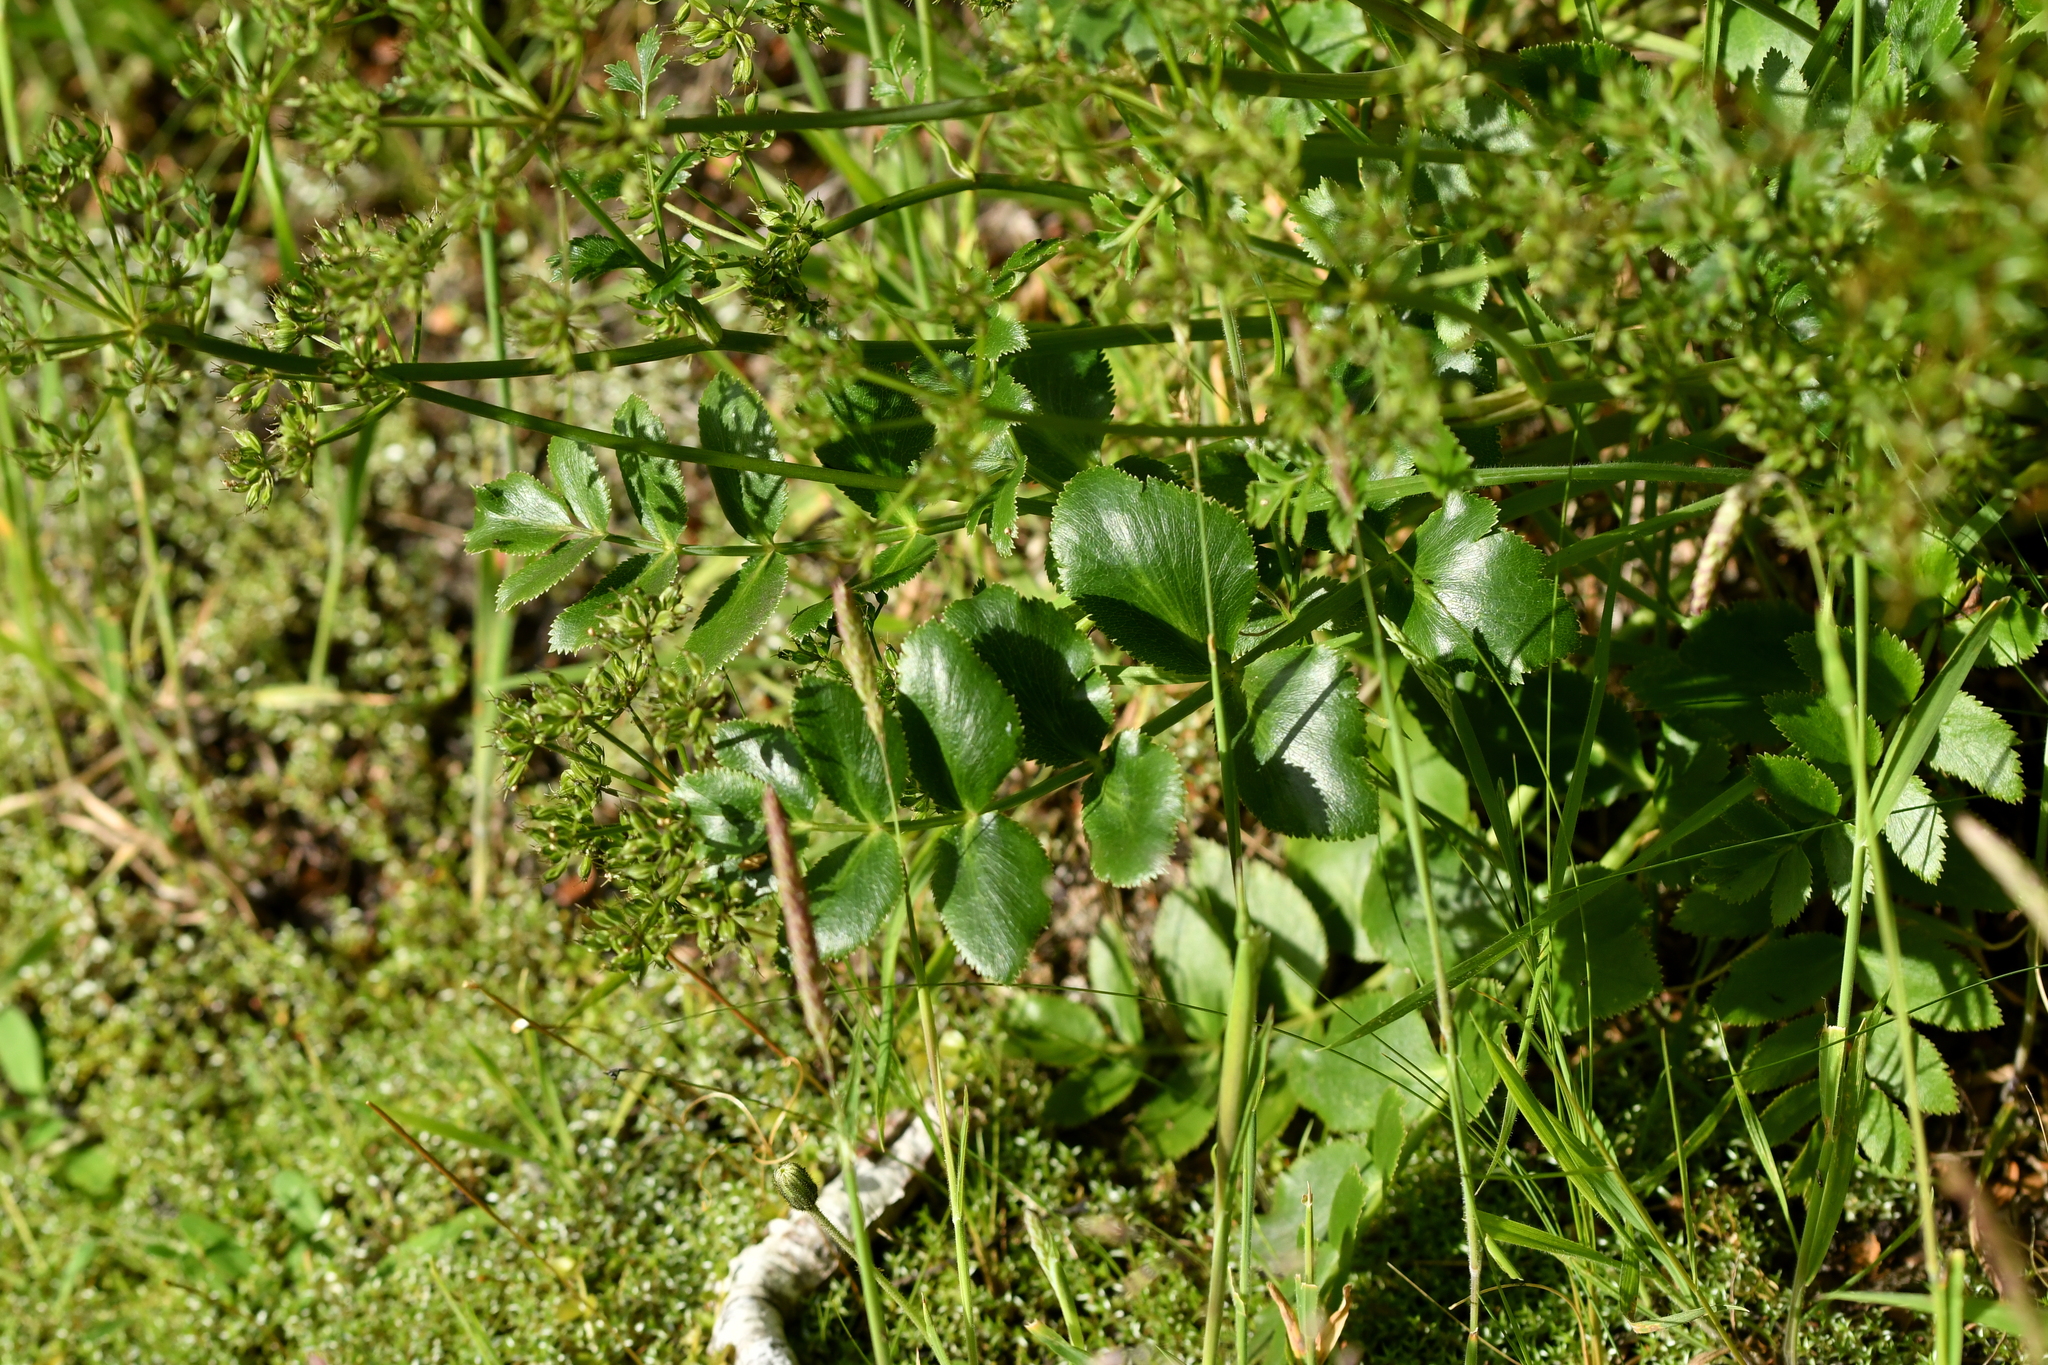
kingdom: Plantae
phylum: Tracheophyta
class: Magnoliopsida
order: Apiales
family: Apiaceae
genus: Gingidia
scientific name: Gingidia montana
